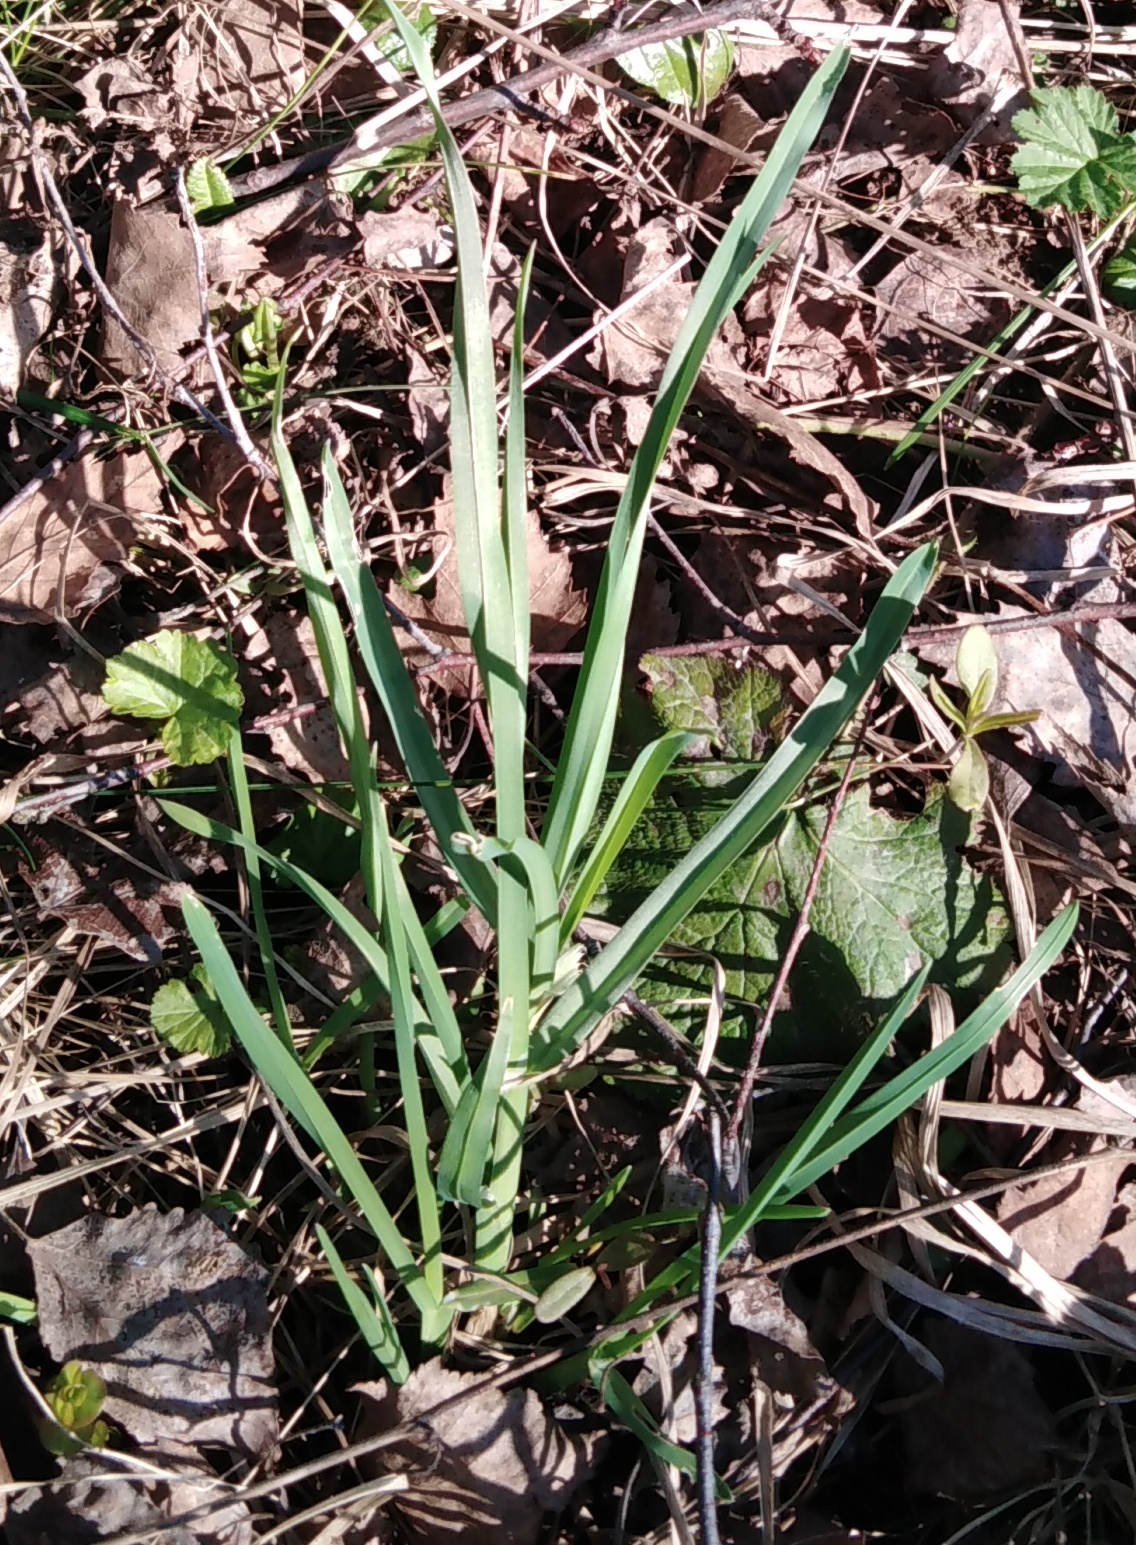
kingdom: Plantae
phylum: Tracheophyta
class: Liliopsida
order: Poales
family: Poaceae
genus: Dactylis
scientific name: Dactylis glomerata
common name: Orchardgrass
